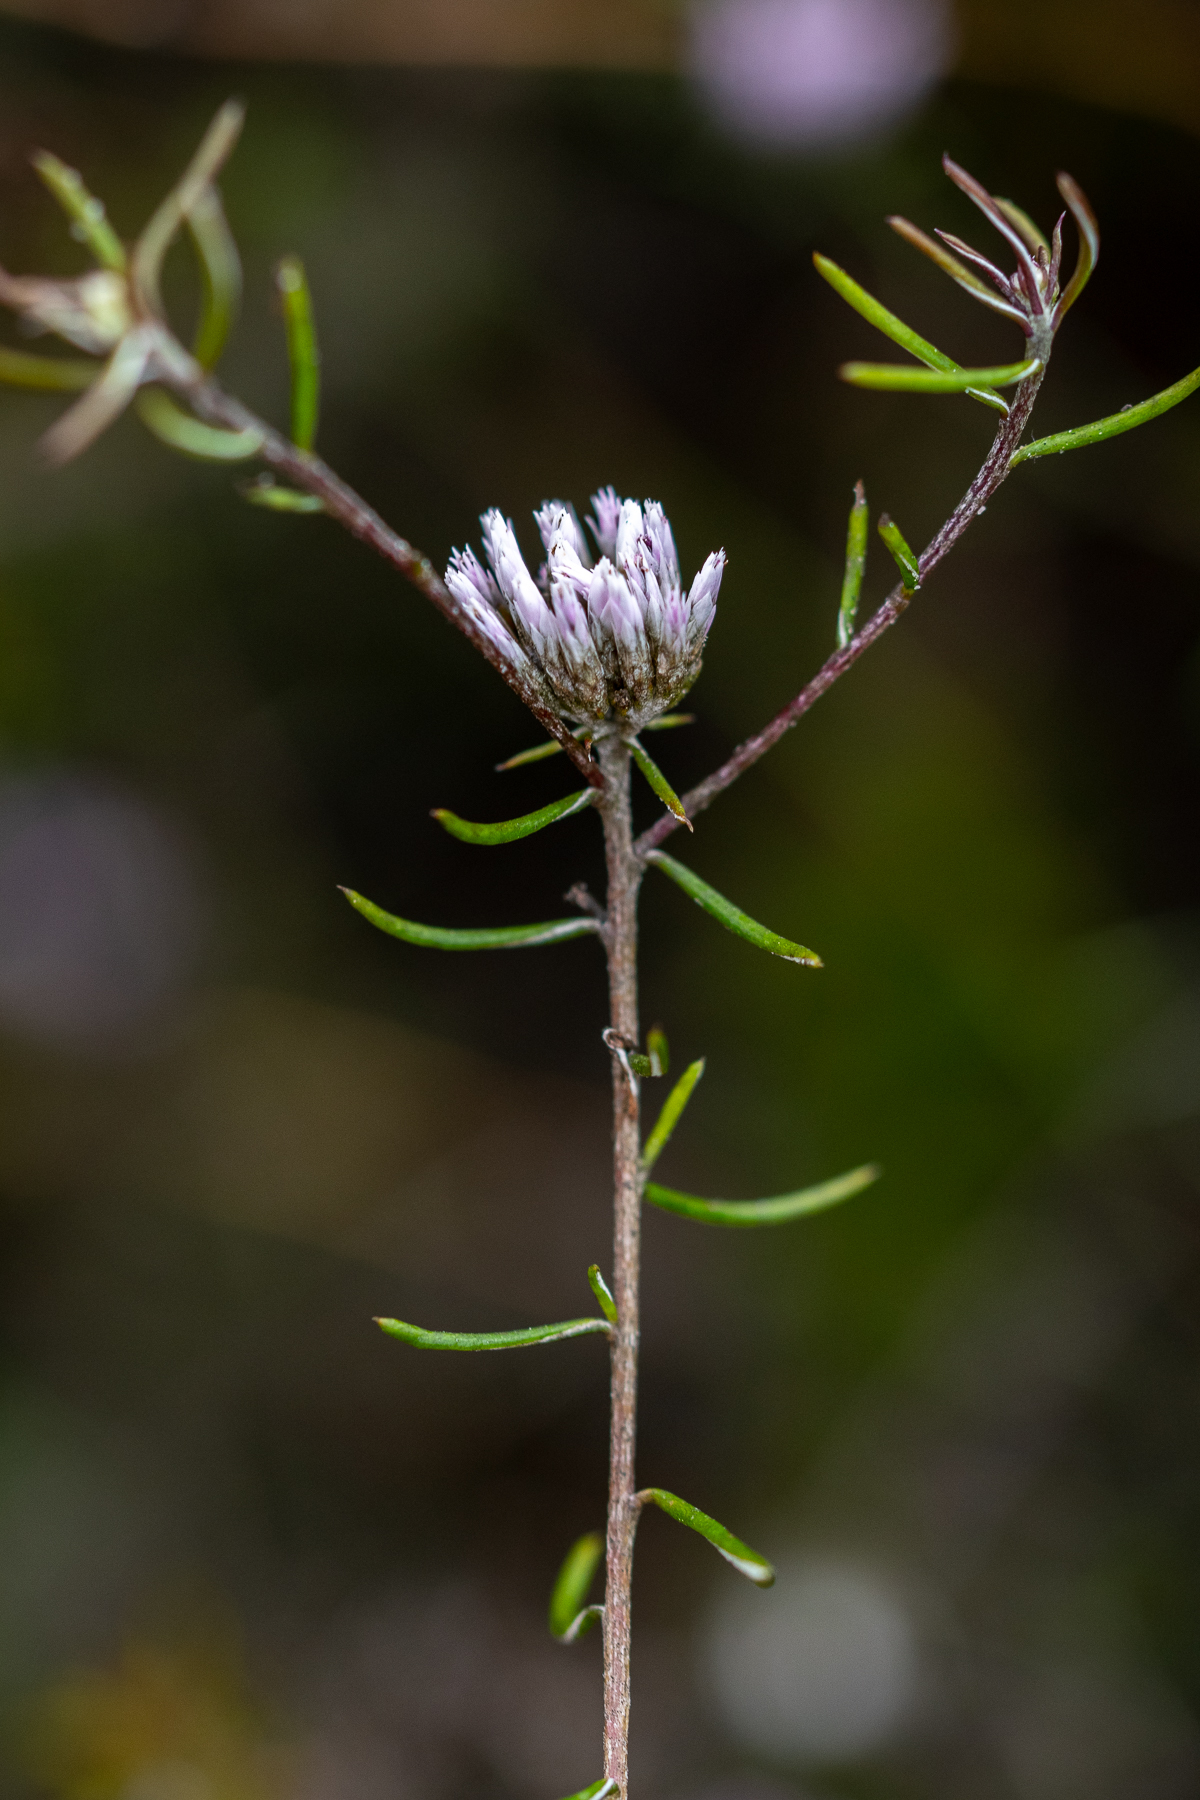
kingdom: Plantae
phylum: Tracheophyta
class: Magnoliopsida
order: Asterales
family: Asteraceae
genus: Metalasia
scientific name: Metalasia tenuifolia
